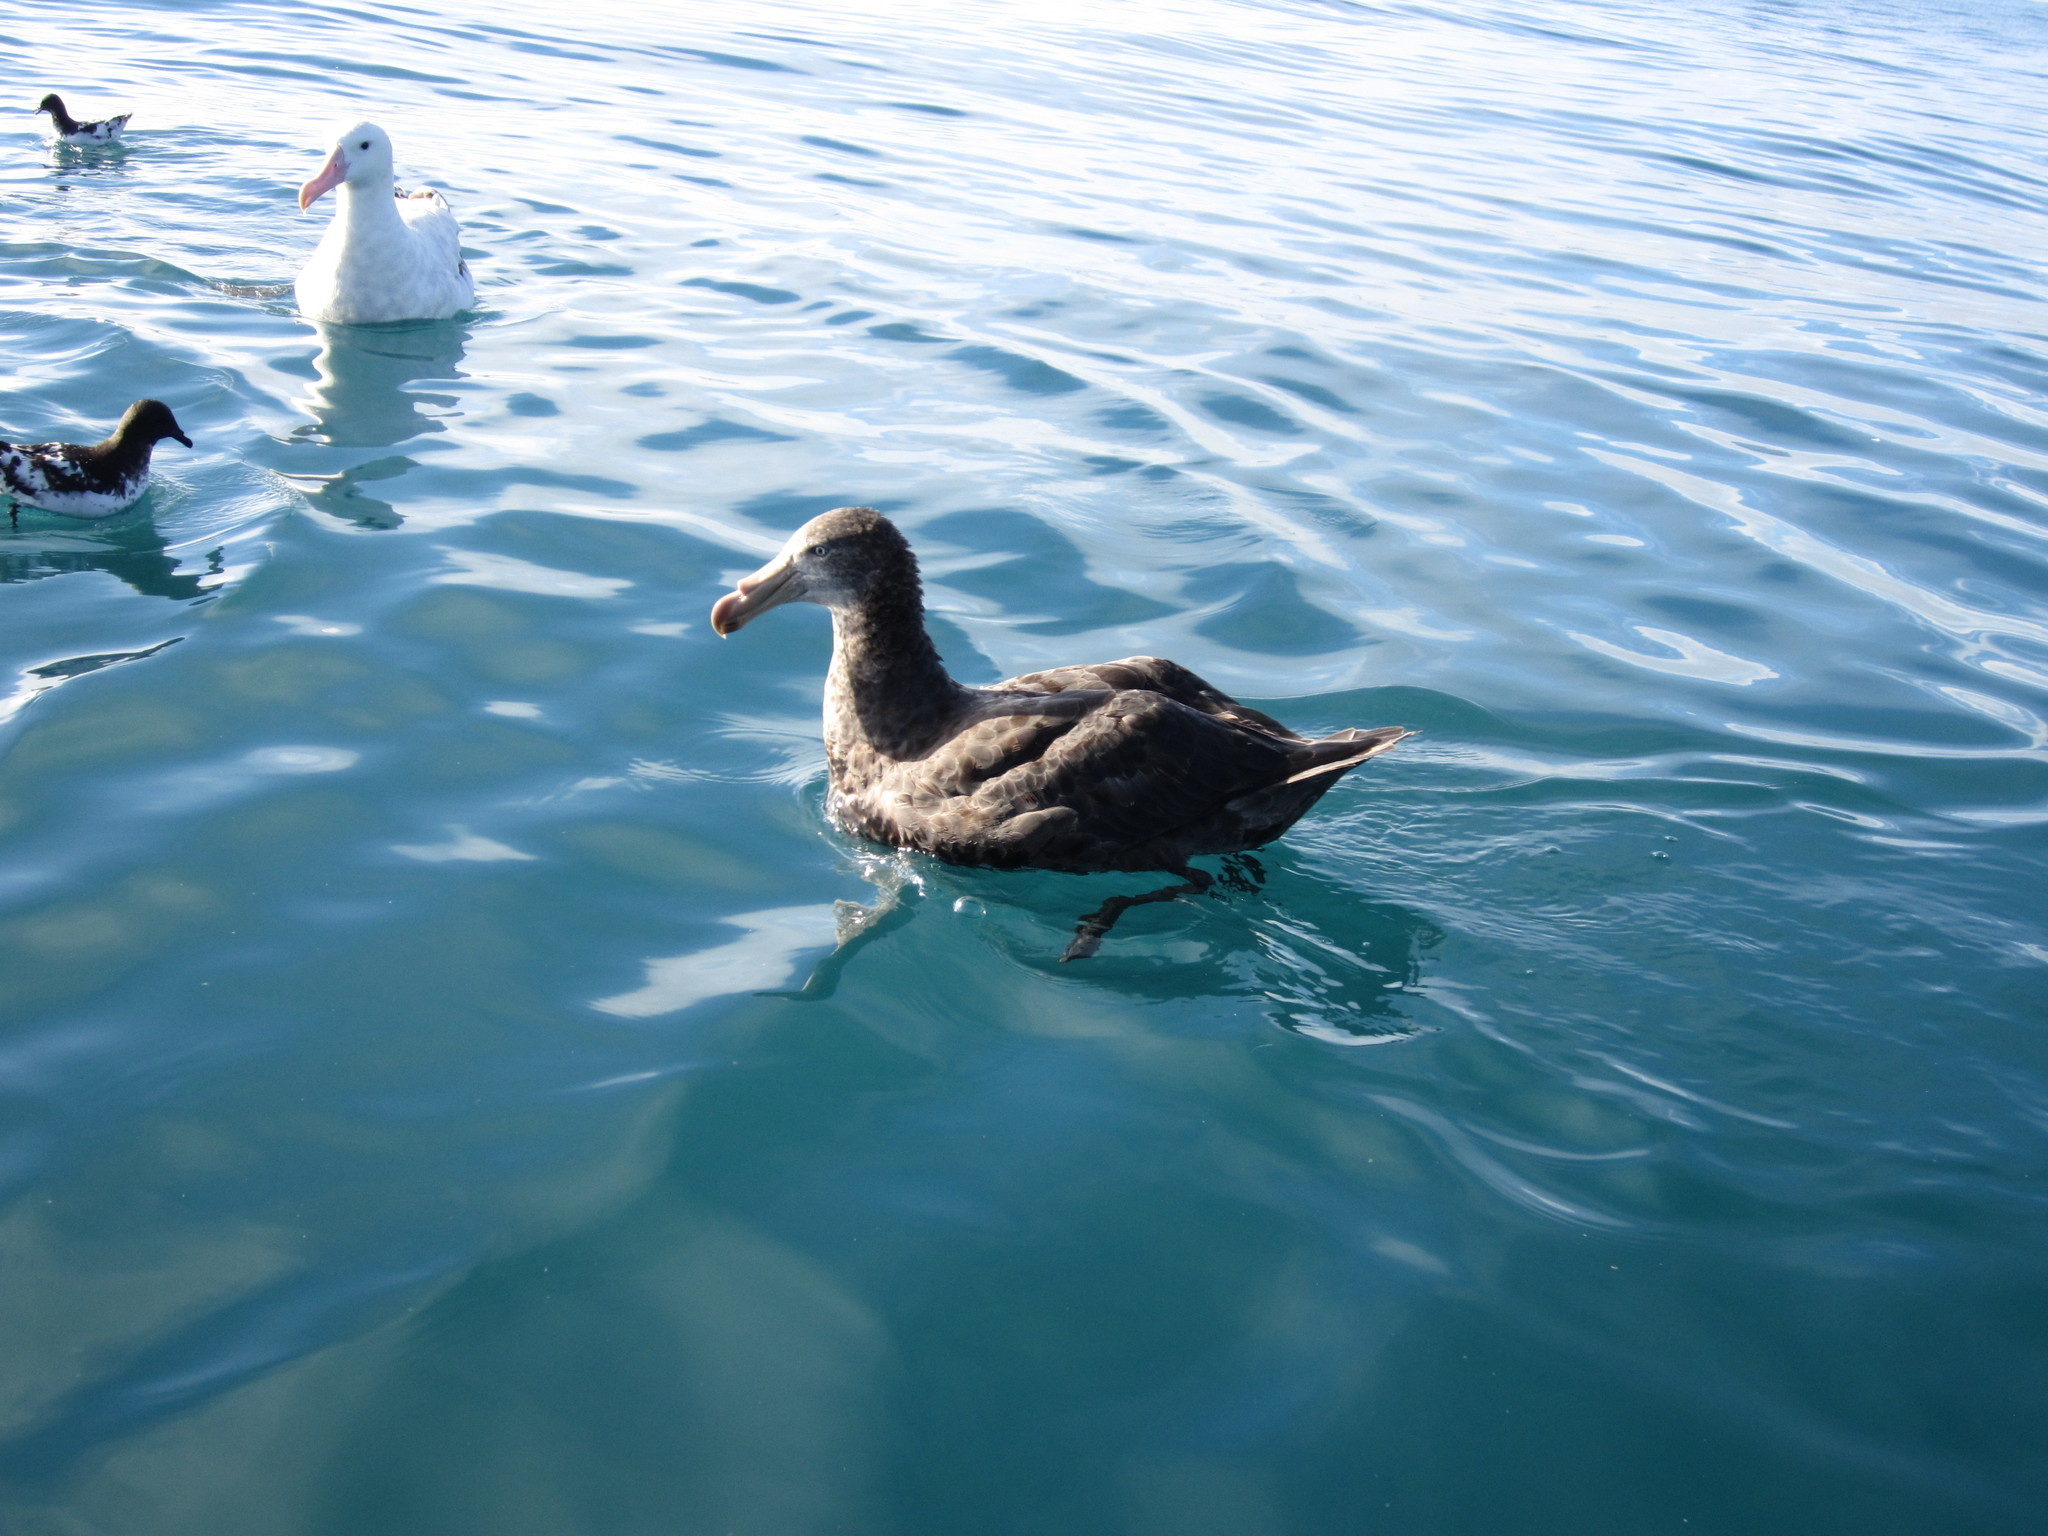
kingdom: Animalia
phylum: Chordata
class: Aves
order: Procellariiformes
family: Procellariidae
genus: Macronectes
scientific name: Macronectes halli
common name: Northern giant petrel
